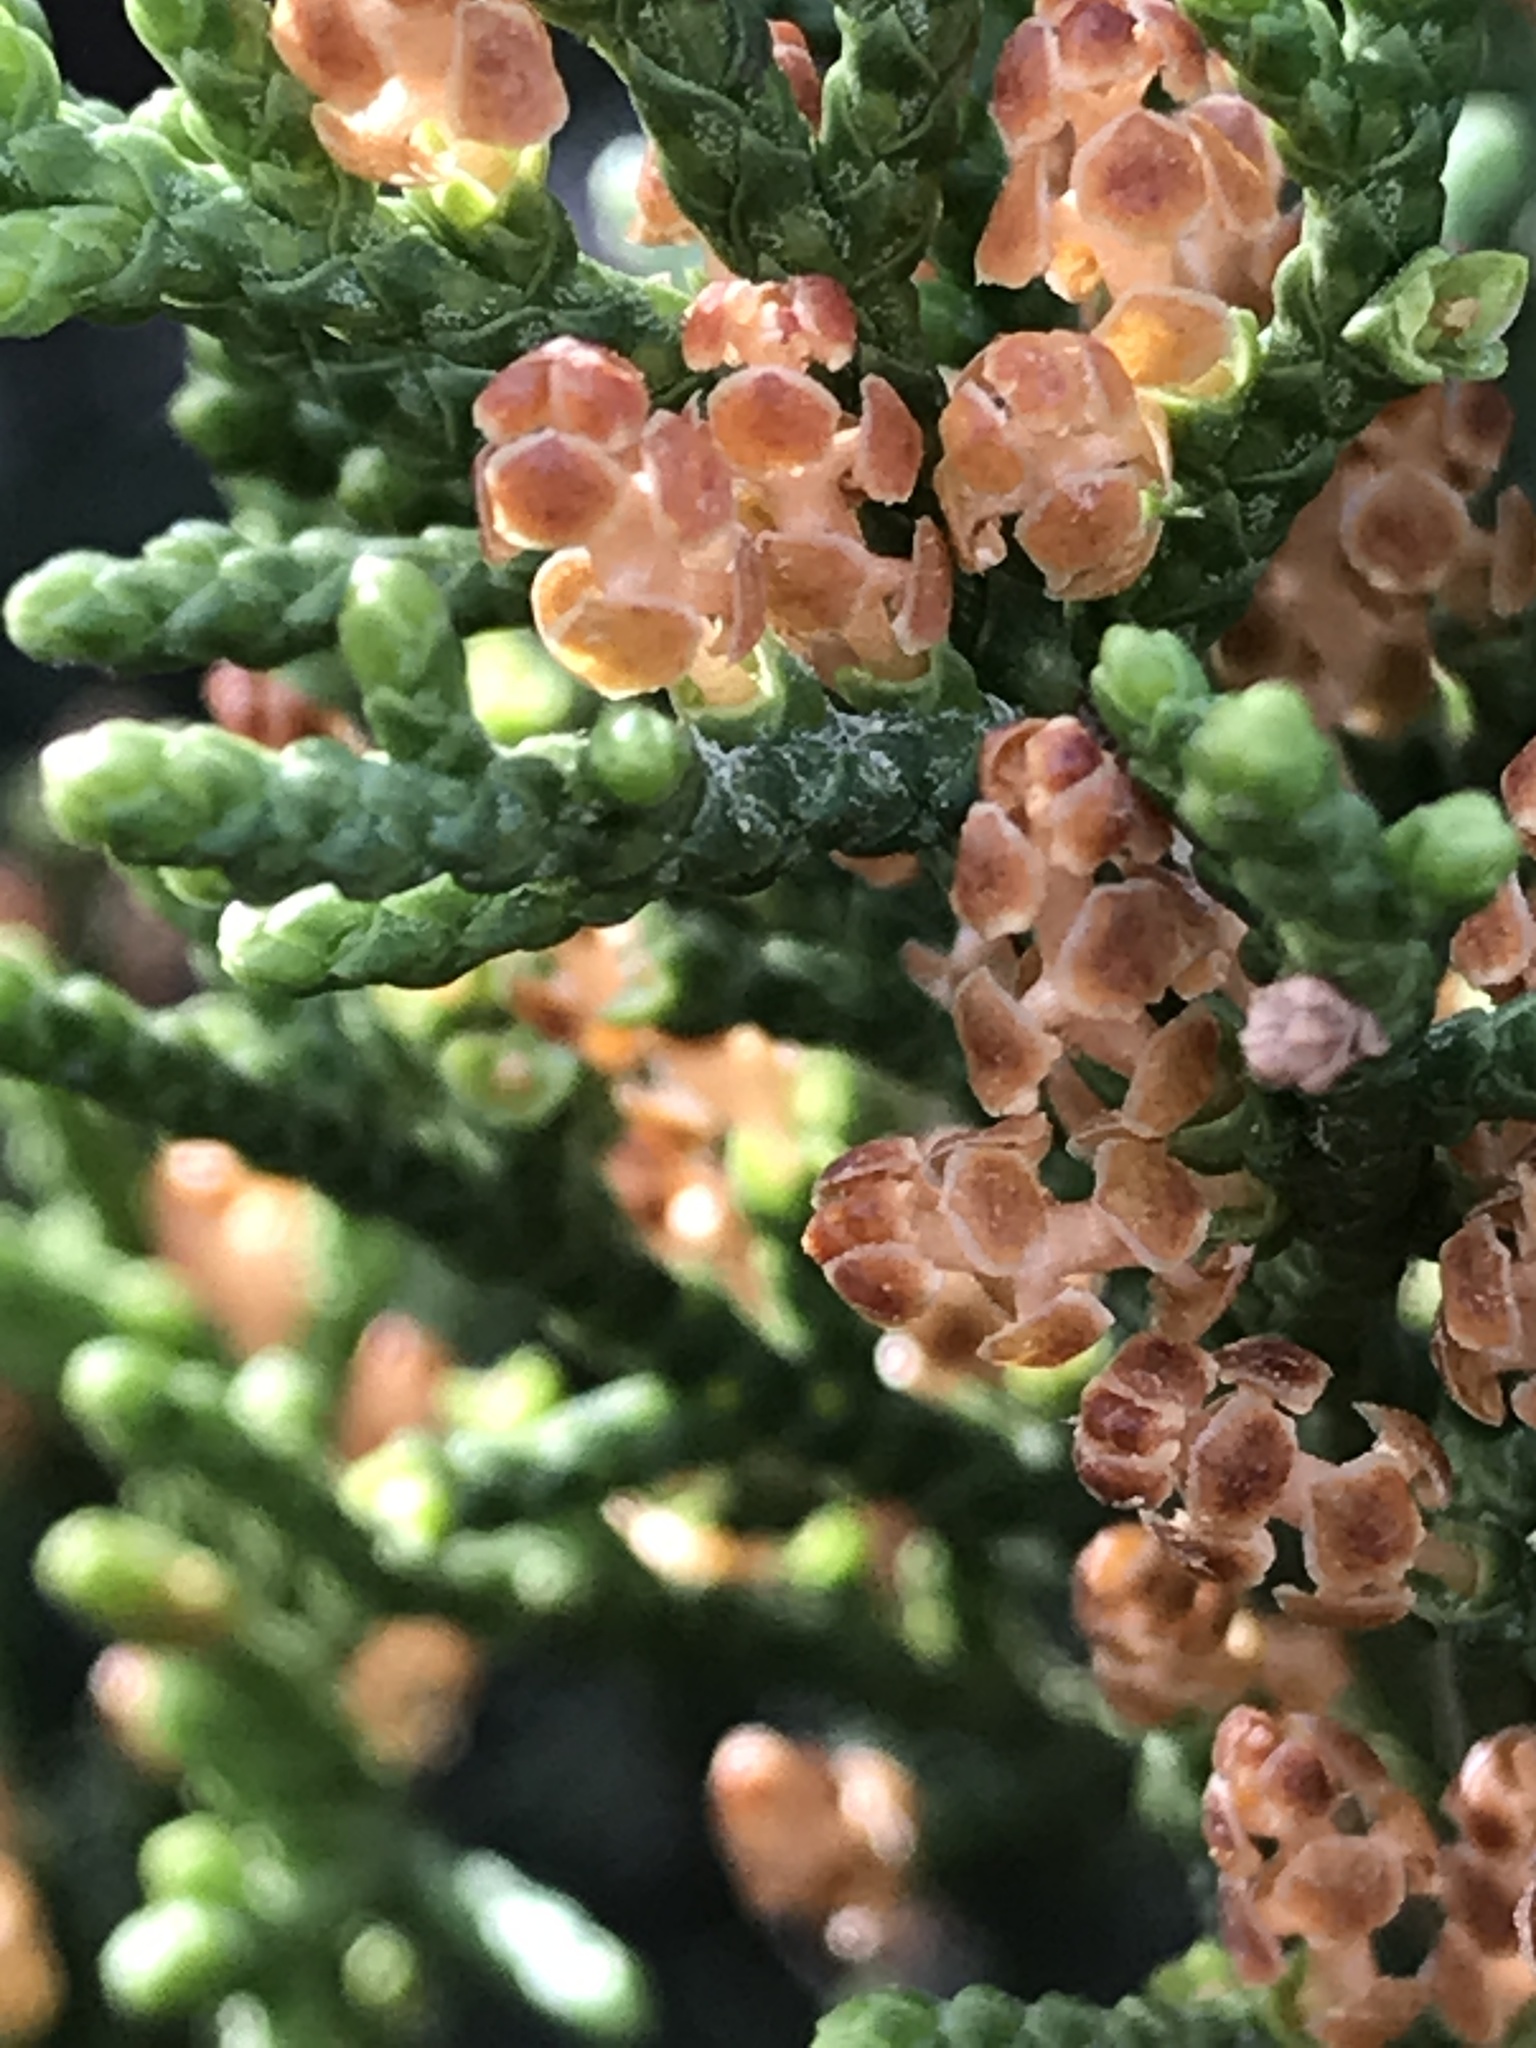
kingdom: Plantae
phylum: Tracheophyta
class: Pinopsida
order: Pinales
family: Cupressaceae
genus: Juniperus
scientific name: Juniperus ashei
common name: Mexican juniper
